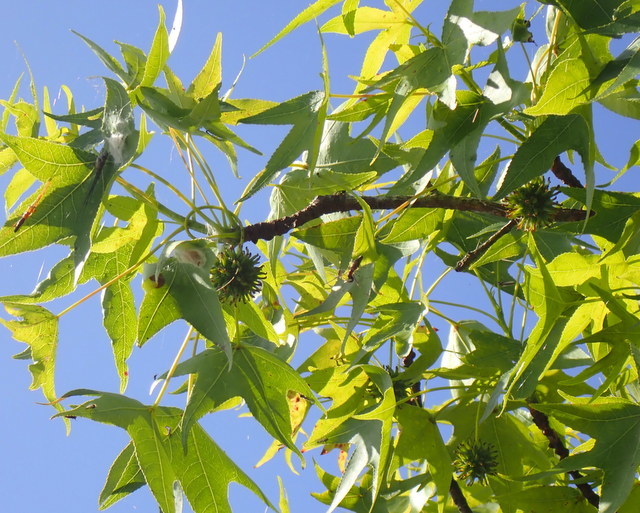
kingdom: Plantae
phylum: Tracheophyta
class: Magnoliopsida
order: Saxifragales
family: Altingiaceae
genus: Liquidambar
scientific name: Liquidambar styraciflua
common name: Sweet gum
